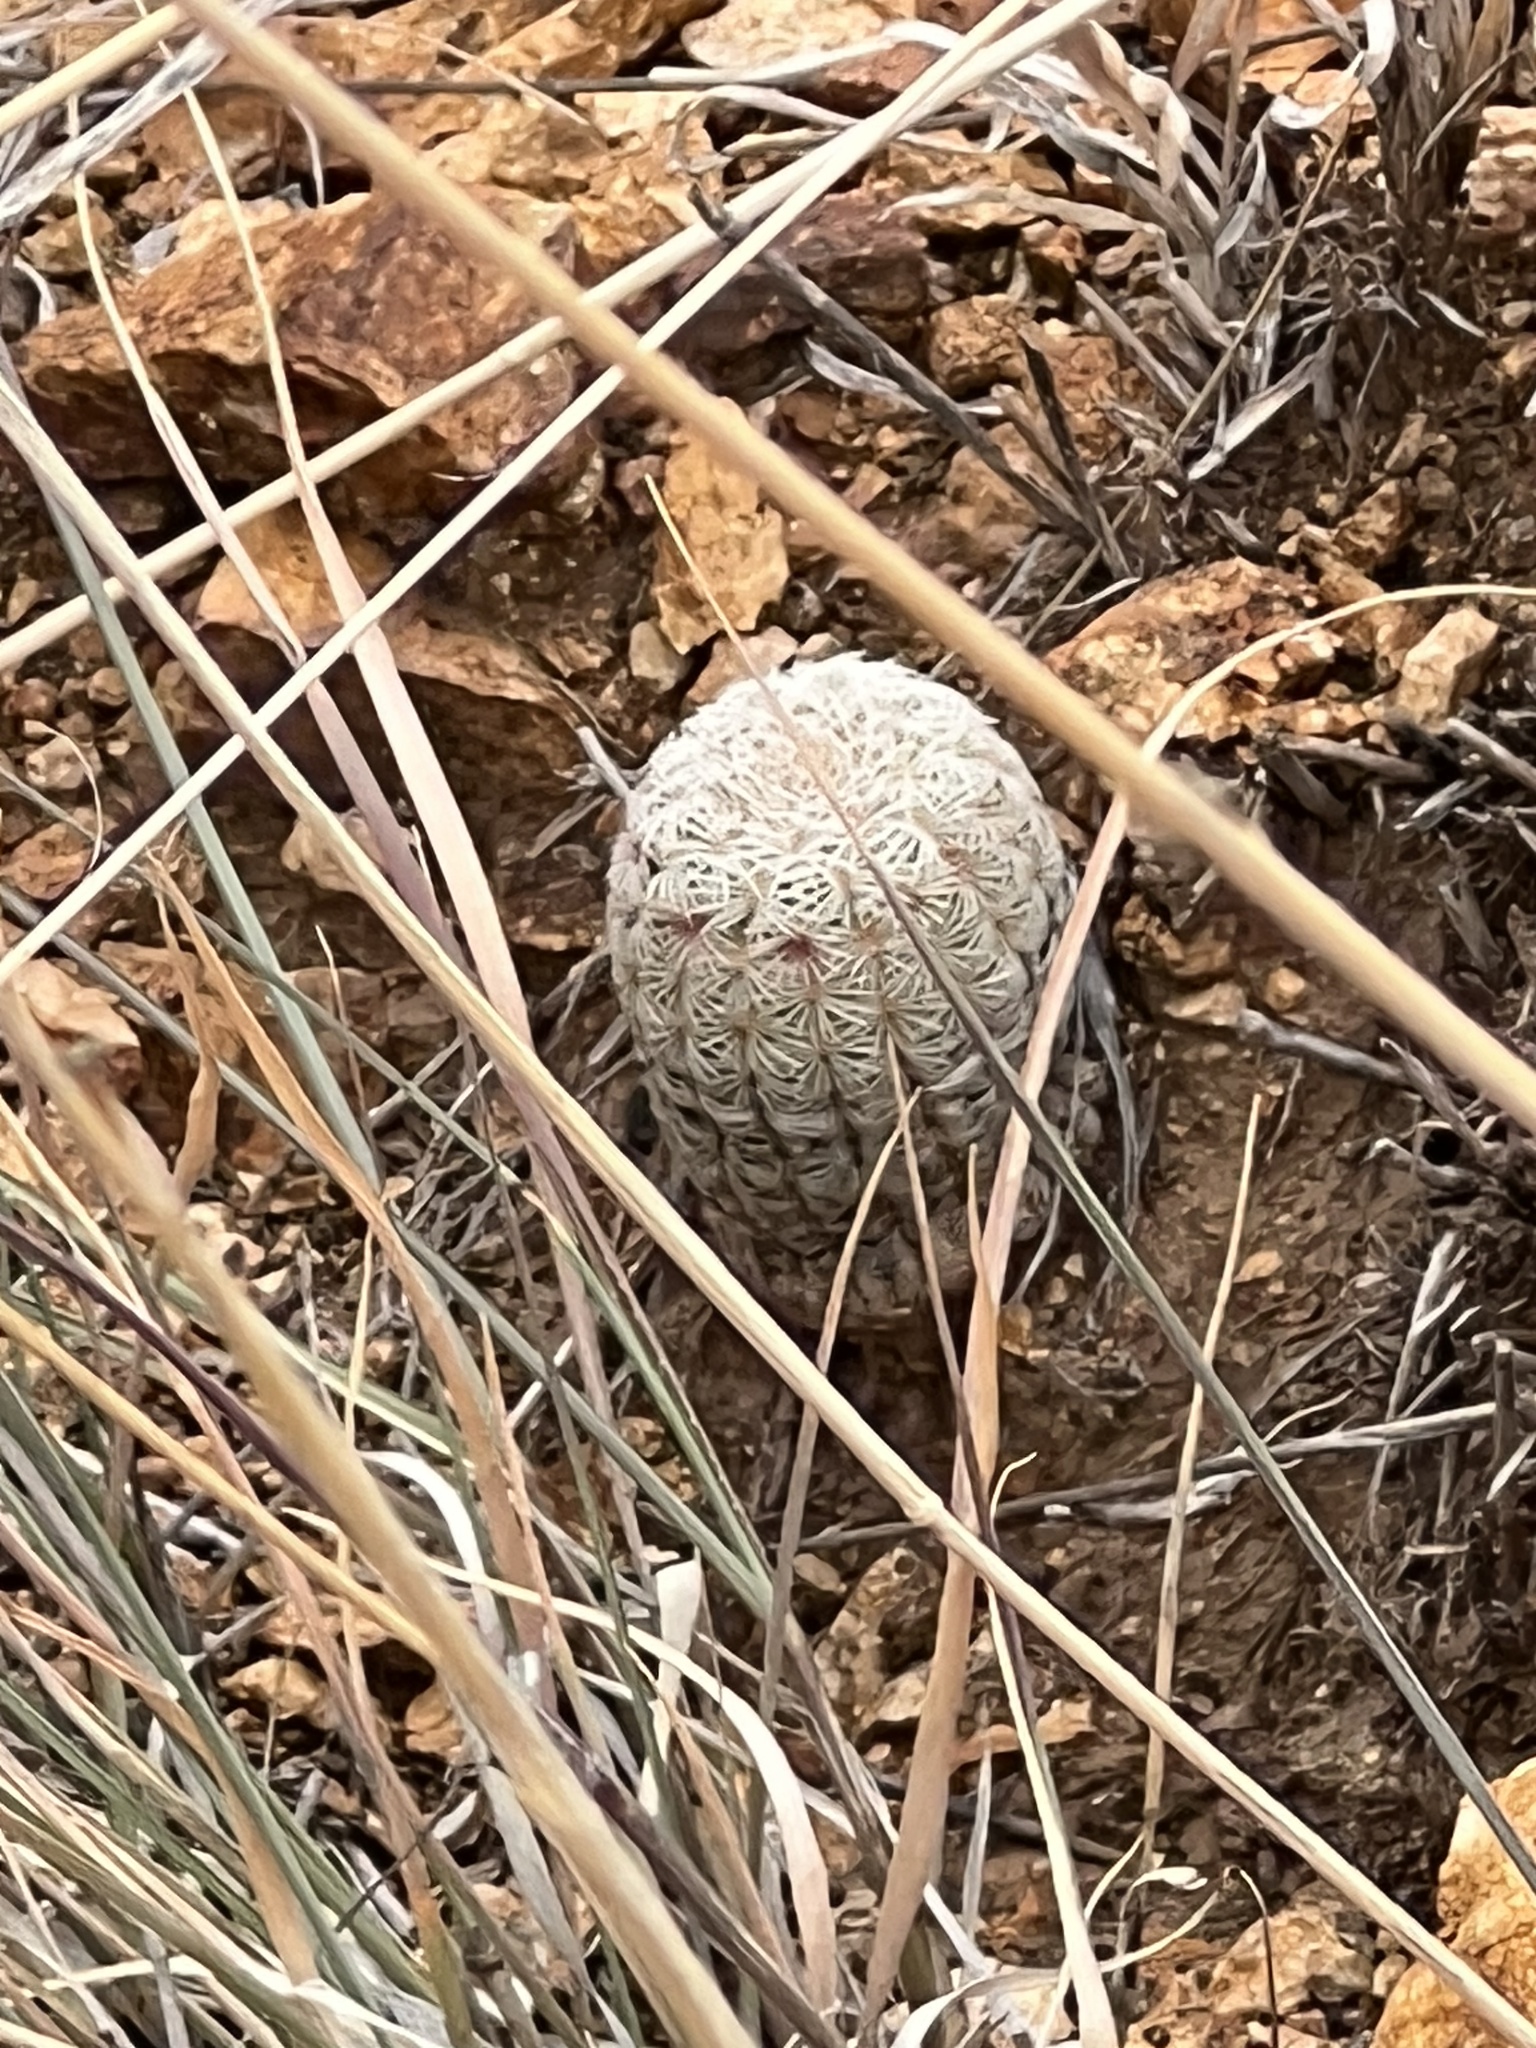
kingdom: Plantae
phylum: Tracheophyta
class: Magnoliopsida
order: Caryophyllales
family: Cactaceae
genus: Echinocereus
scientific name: Echinocereus rigidissimus
